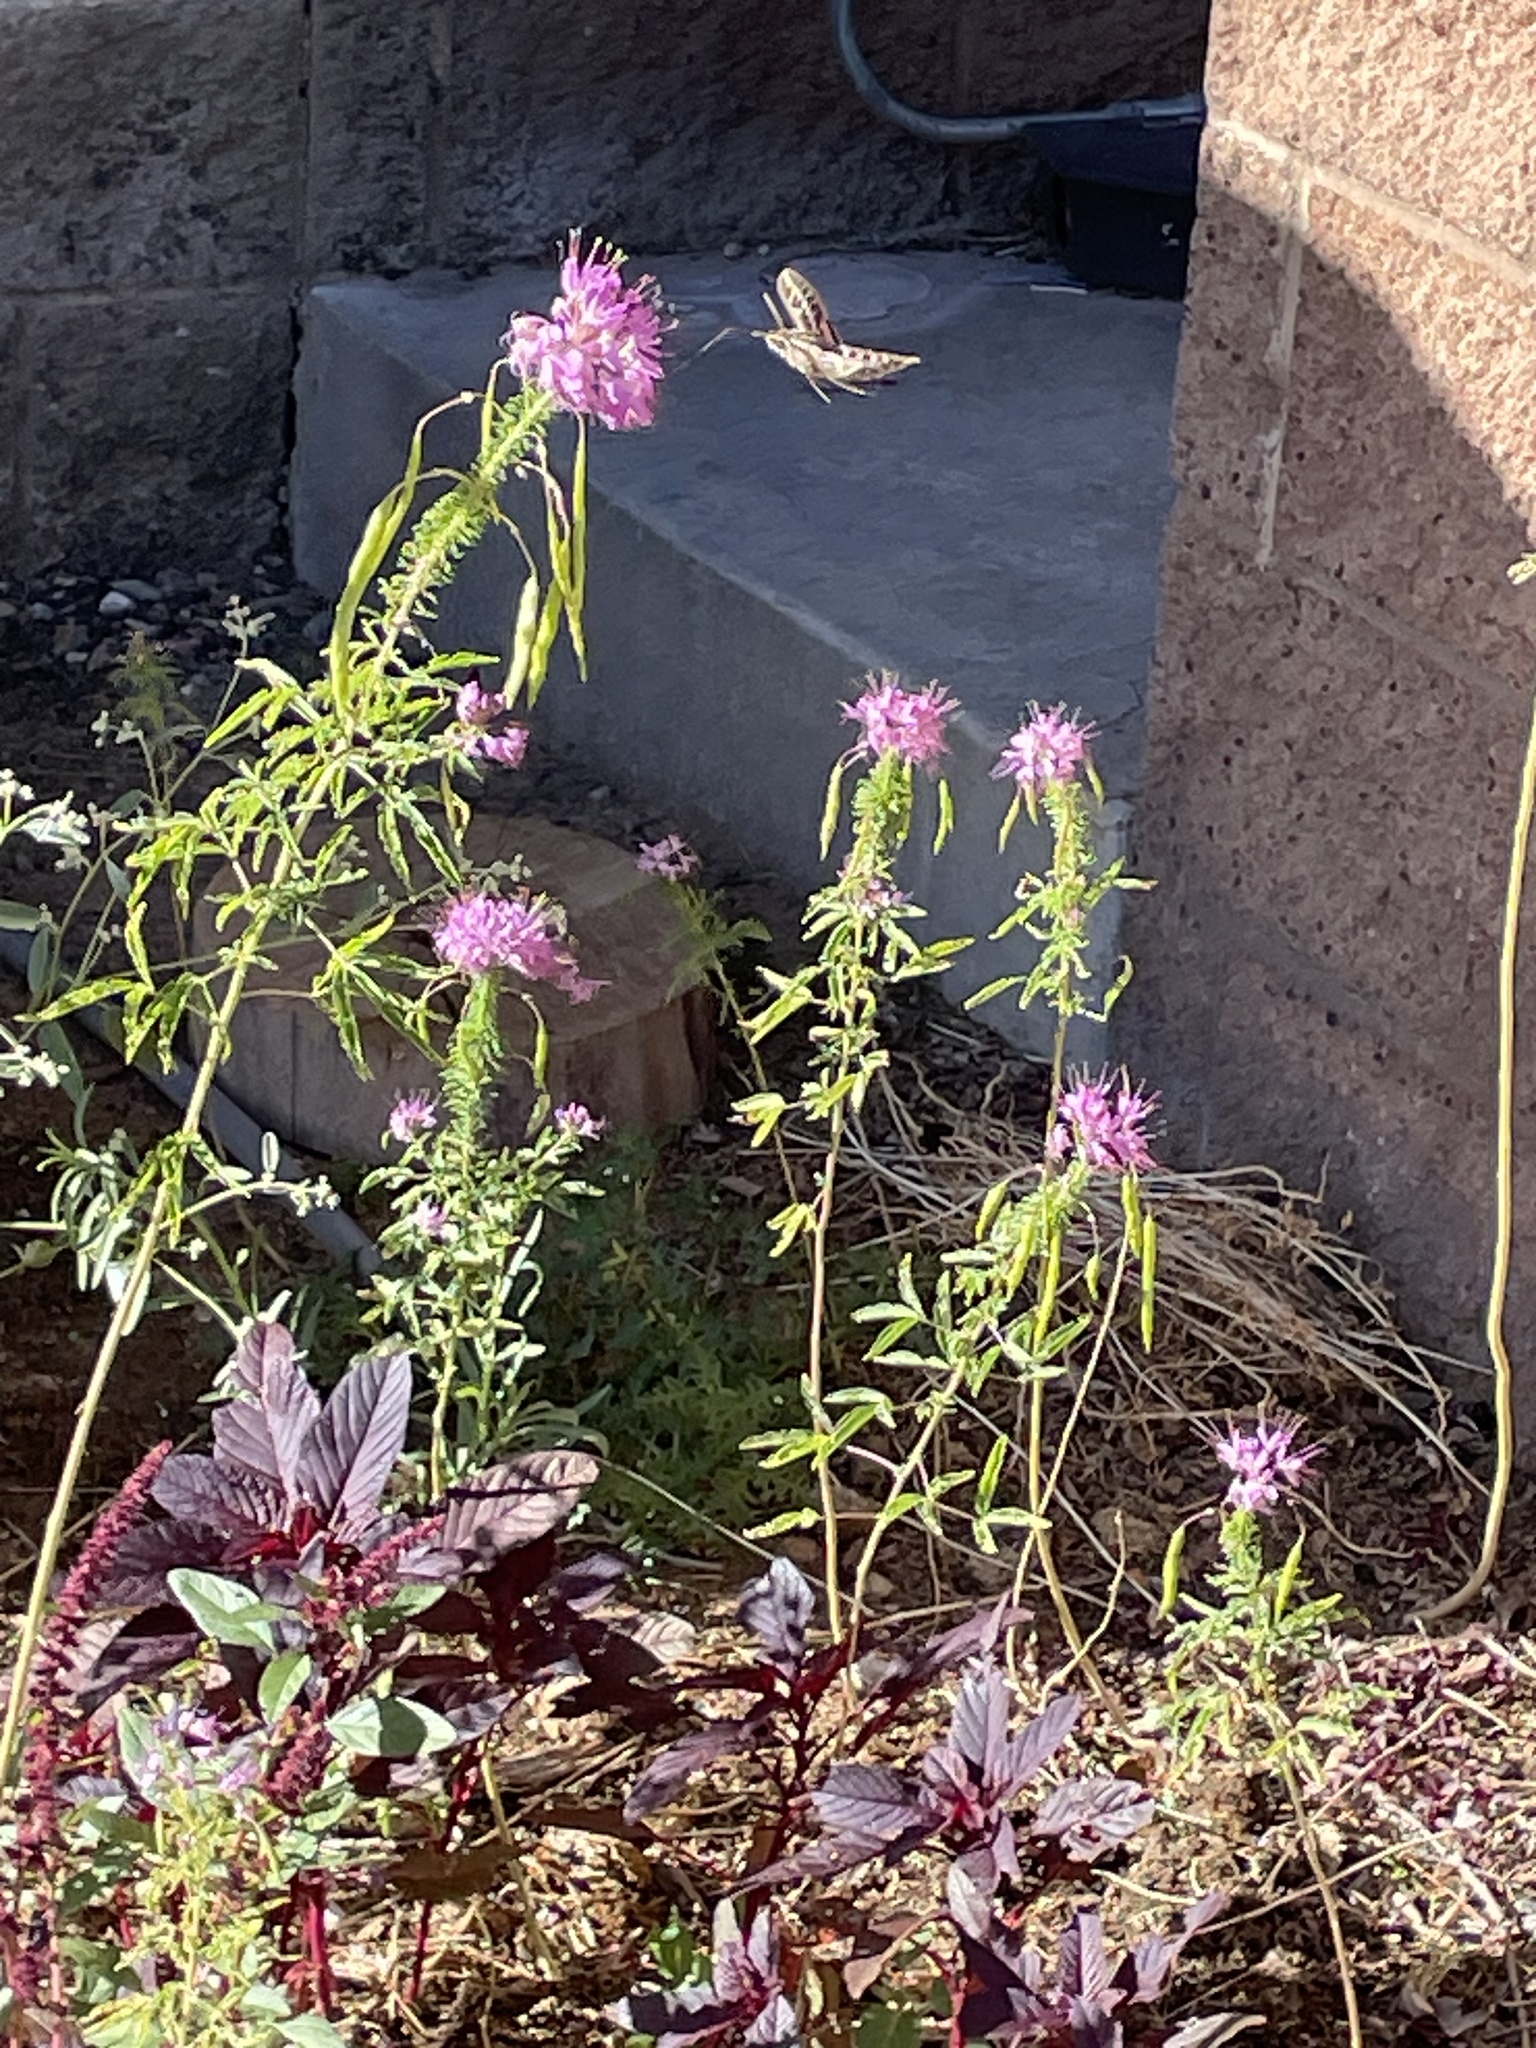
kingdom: Animalia
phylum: Arthropoda
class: Insecta
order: Lepidoptera
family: Sphingidae
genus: Hyles
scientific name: Hyles lineata
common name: White-lined sphinx
